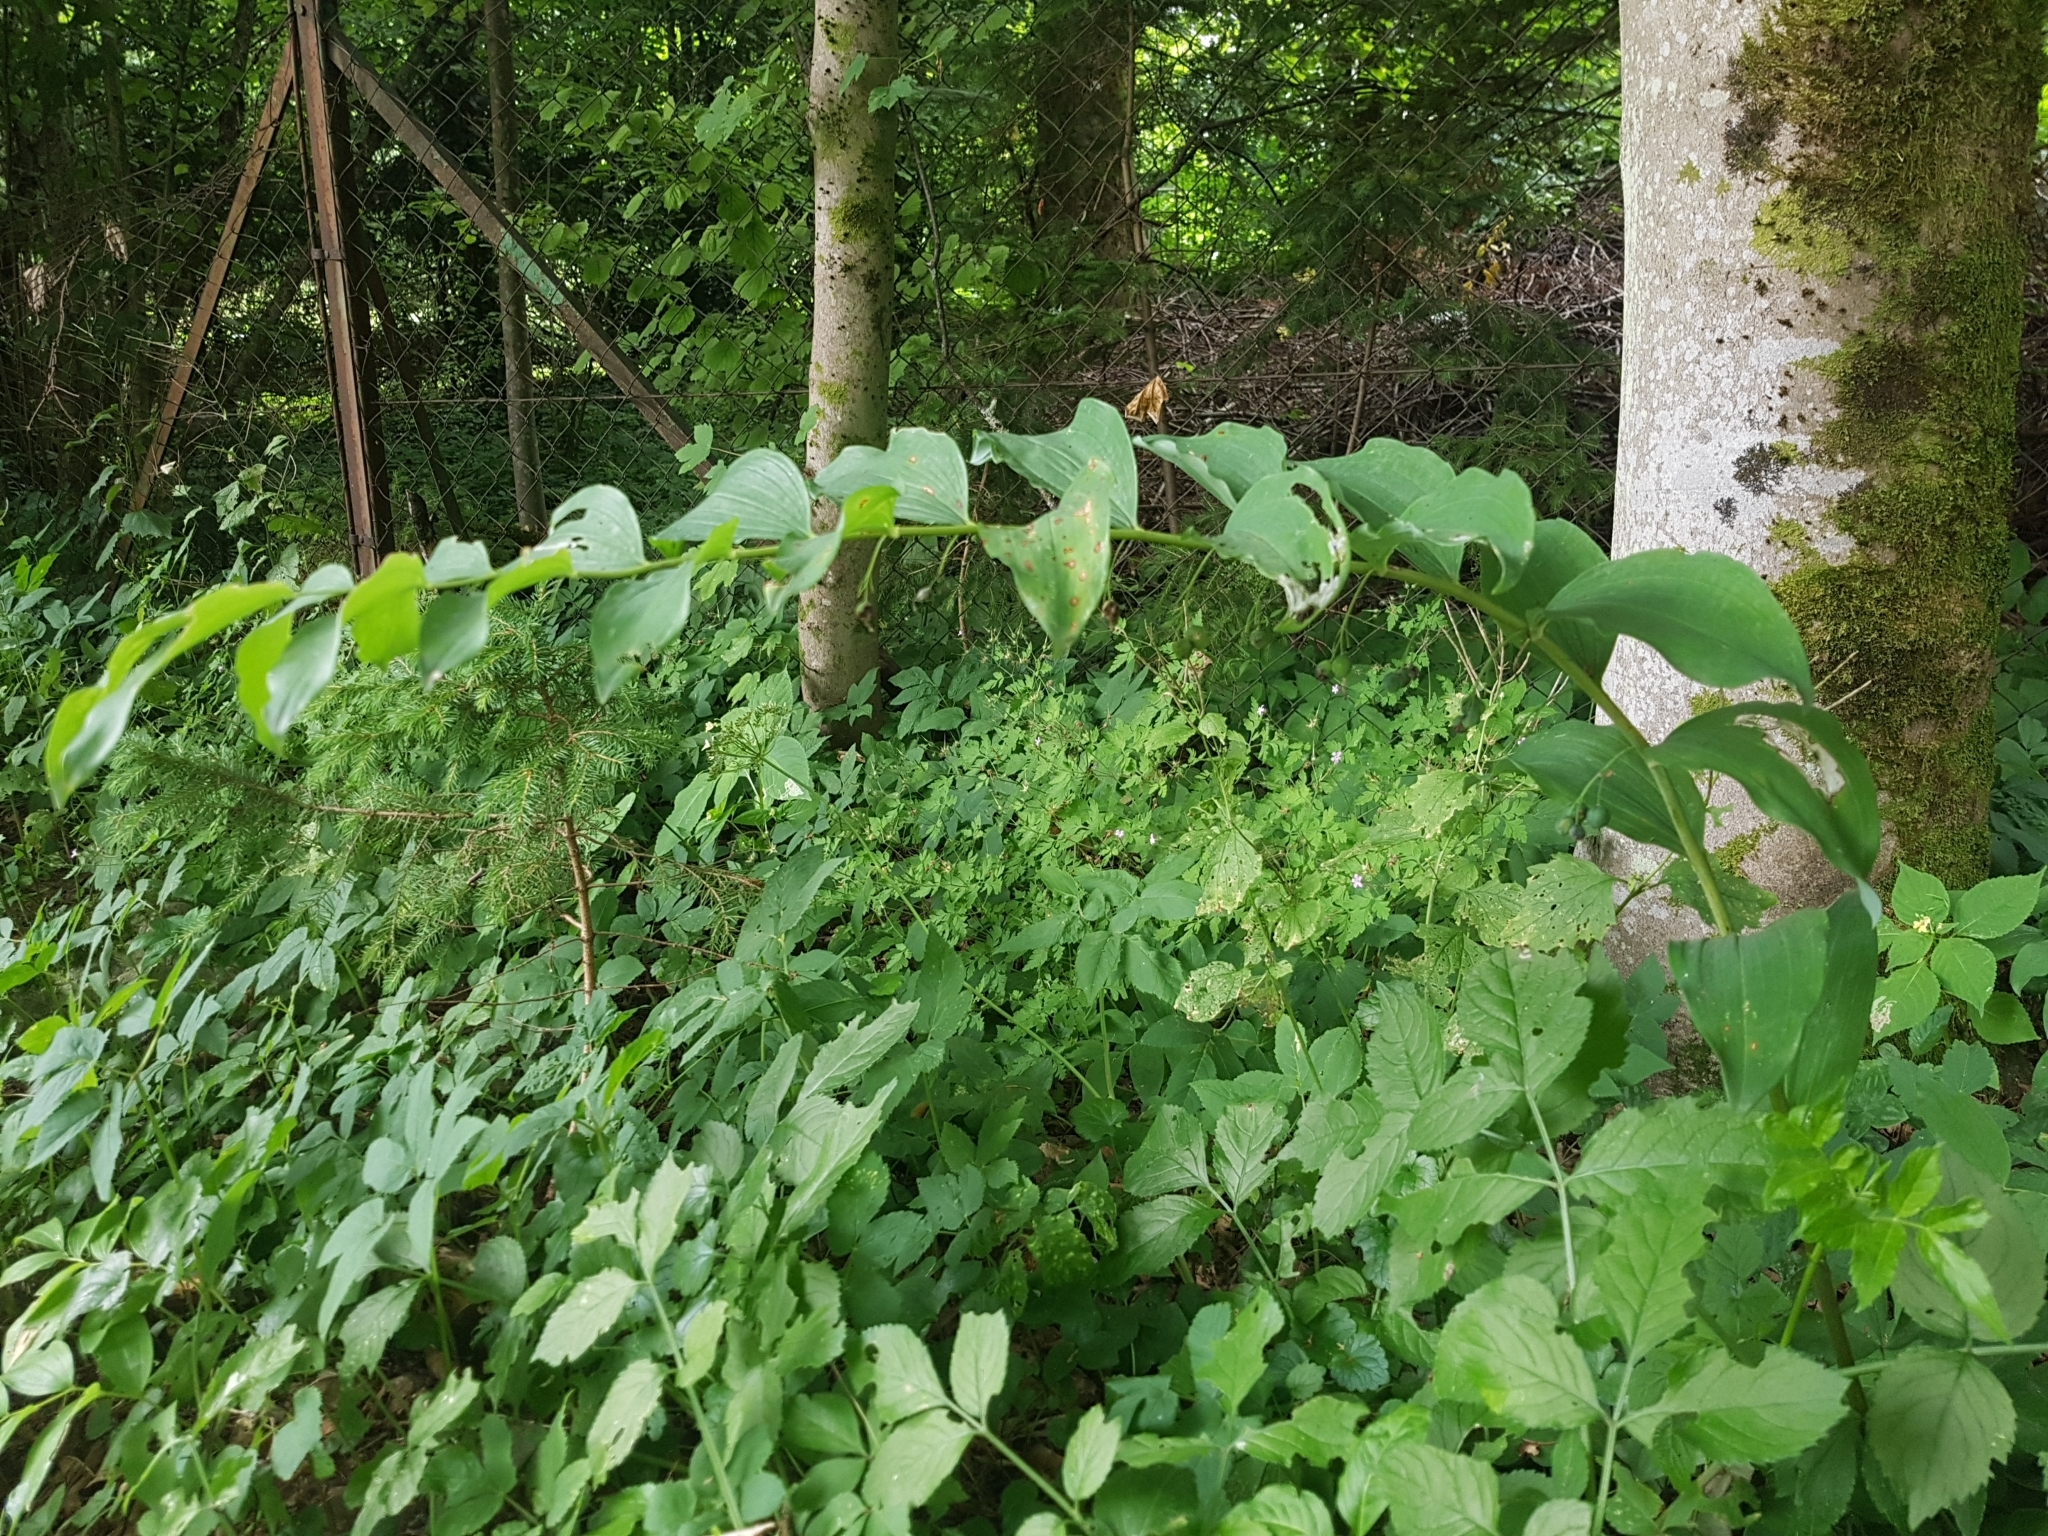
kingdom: Plantae
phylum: Tracheophyta
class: Liliopsida
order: Asparagales
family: Asparagaceae
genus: Polygonatum
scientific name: Polygonatum multiflorum
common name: Solomon's-seal
